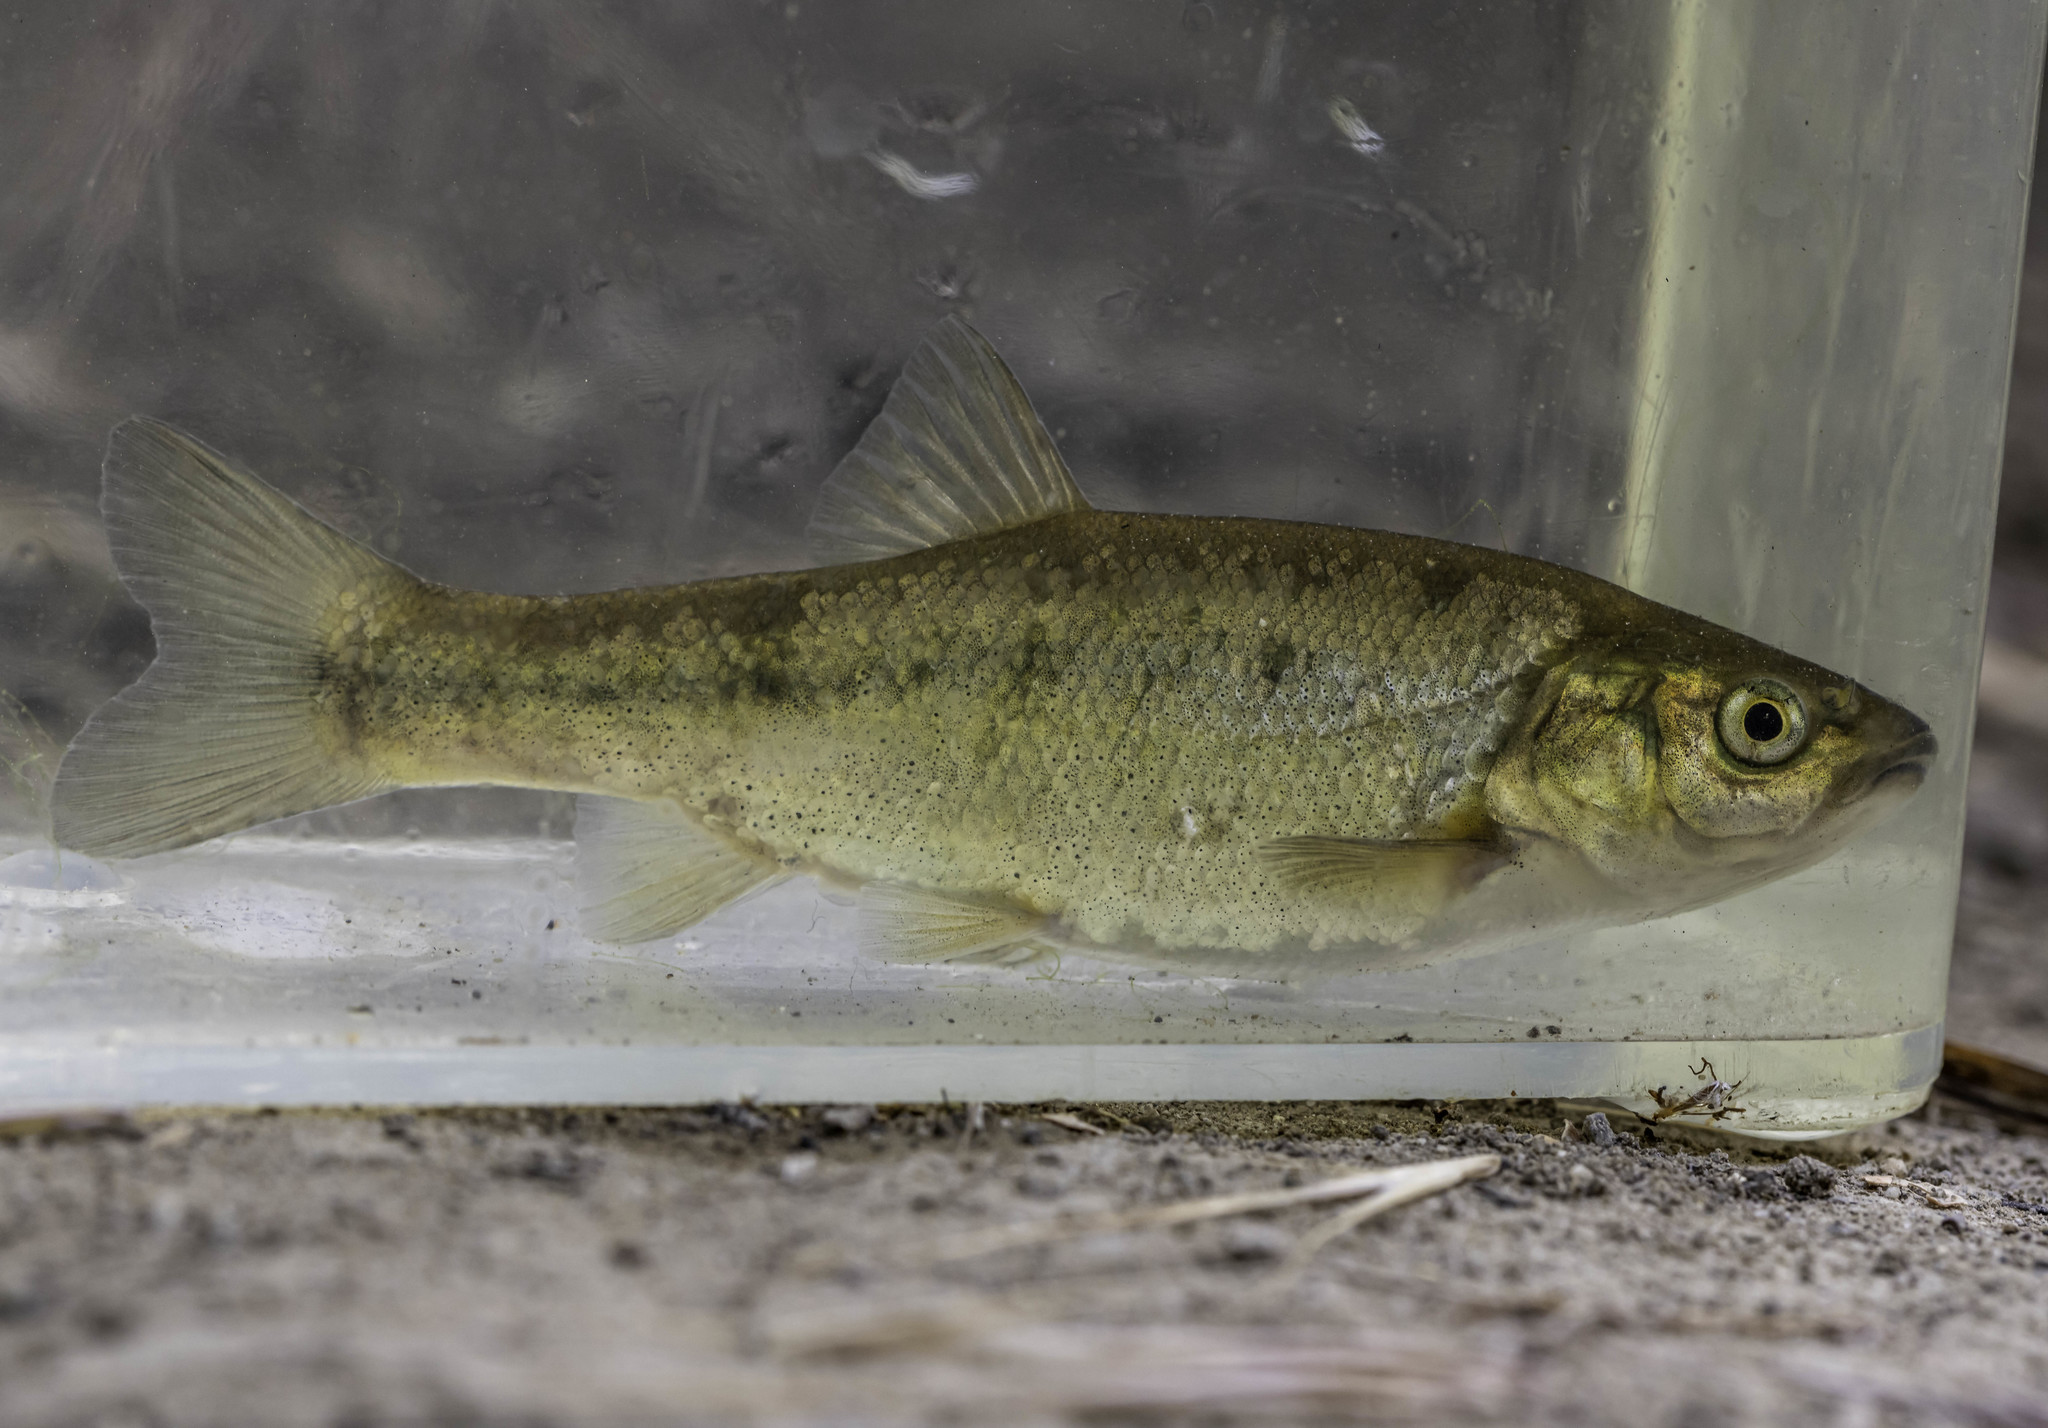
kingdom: Animalia
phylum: Chordata
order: Cypriniformes
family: Cyprinidae
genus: Gila
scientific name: Gila orcuttii
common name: Arroyo chub
